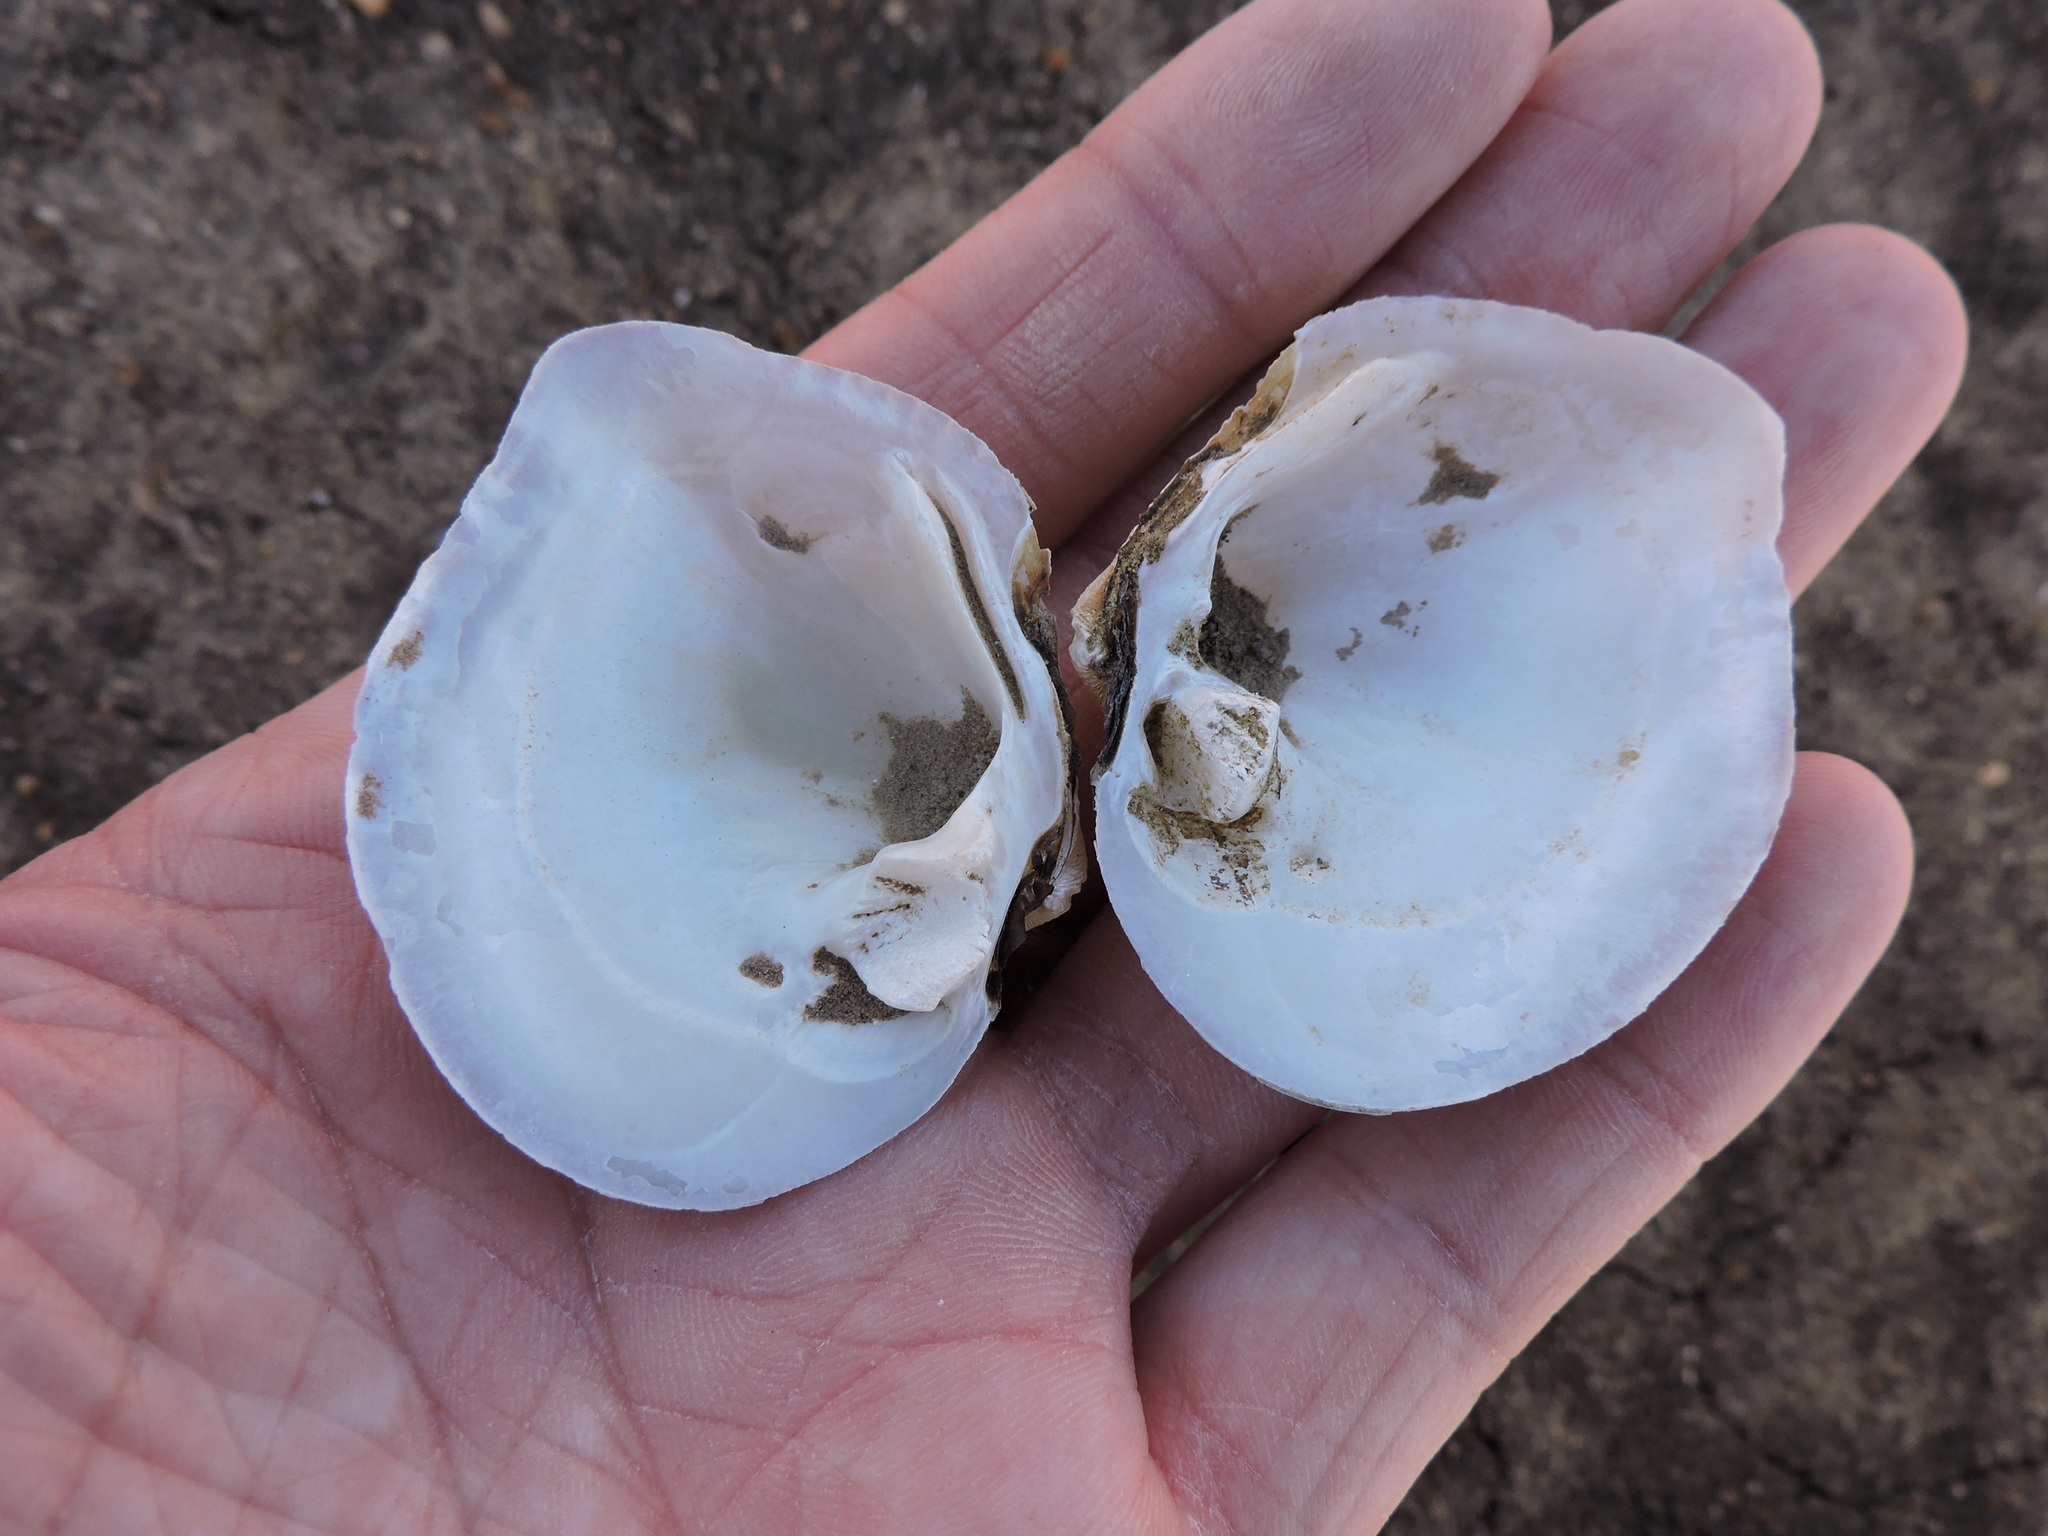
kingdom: Animalia
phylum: Mollusca
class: Bivalvia
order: Unionida
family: Unionidae
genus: Quadrula
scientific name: Quadrula quadrula
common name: Mapleleaf
